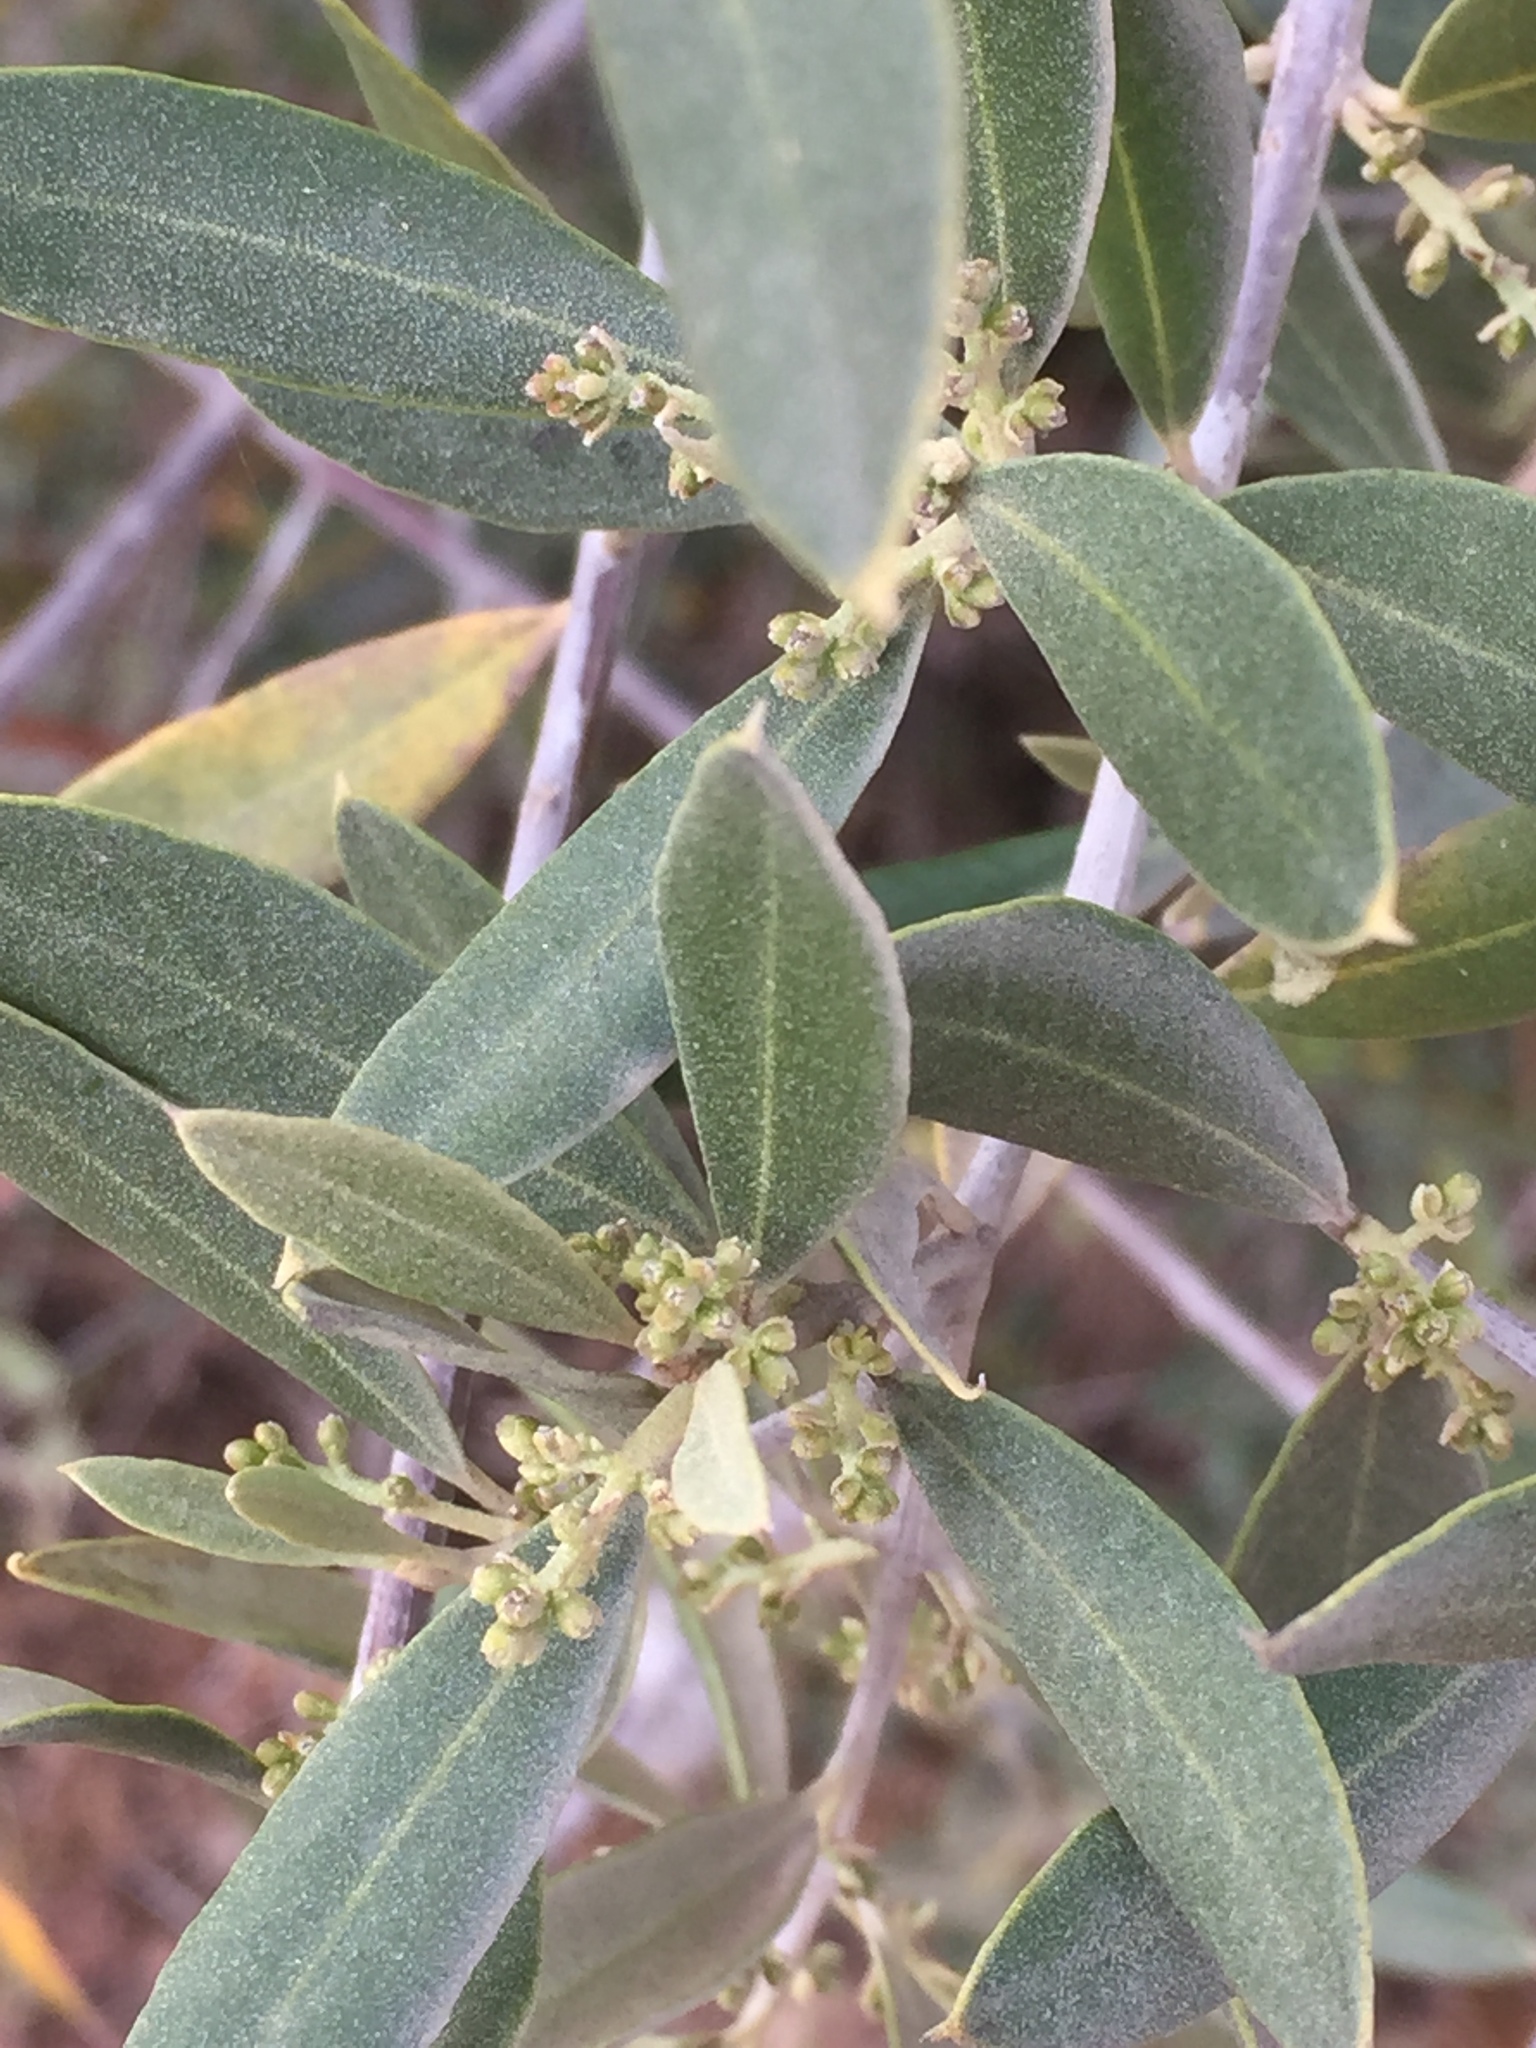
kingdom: Plantae
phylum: Tracheophyta
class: Magnoliopsida
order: Lamiales
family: Oleaceae
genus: Olea
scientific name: Olea europaea
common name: Olive
